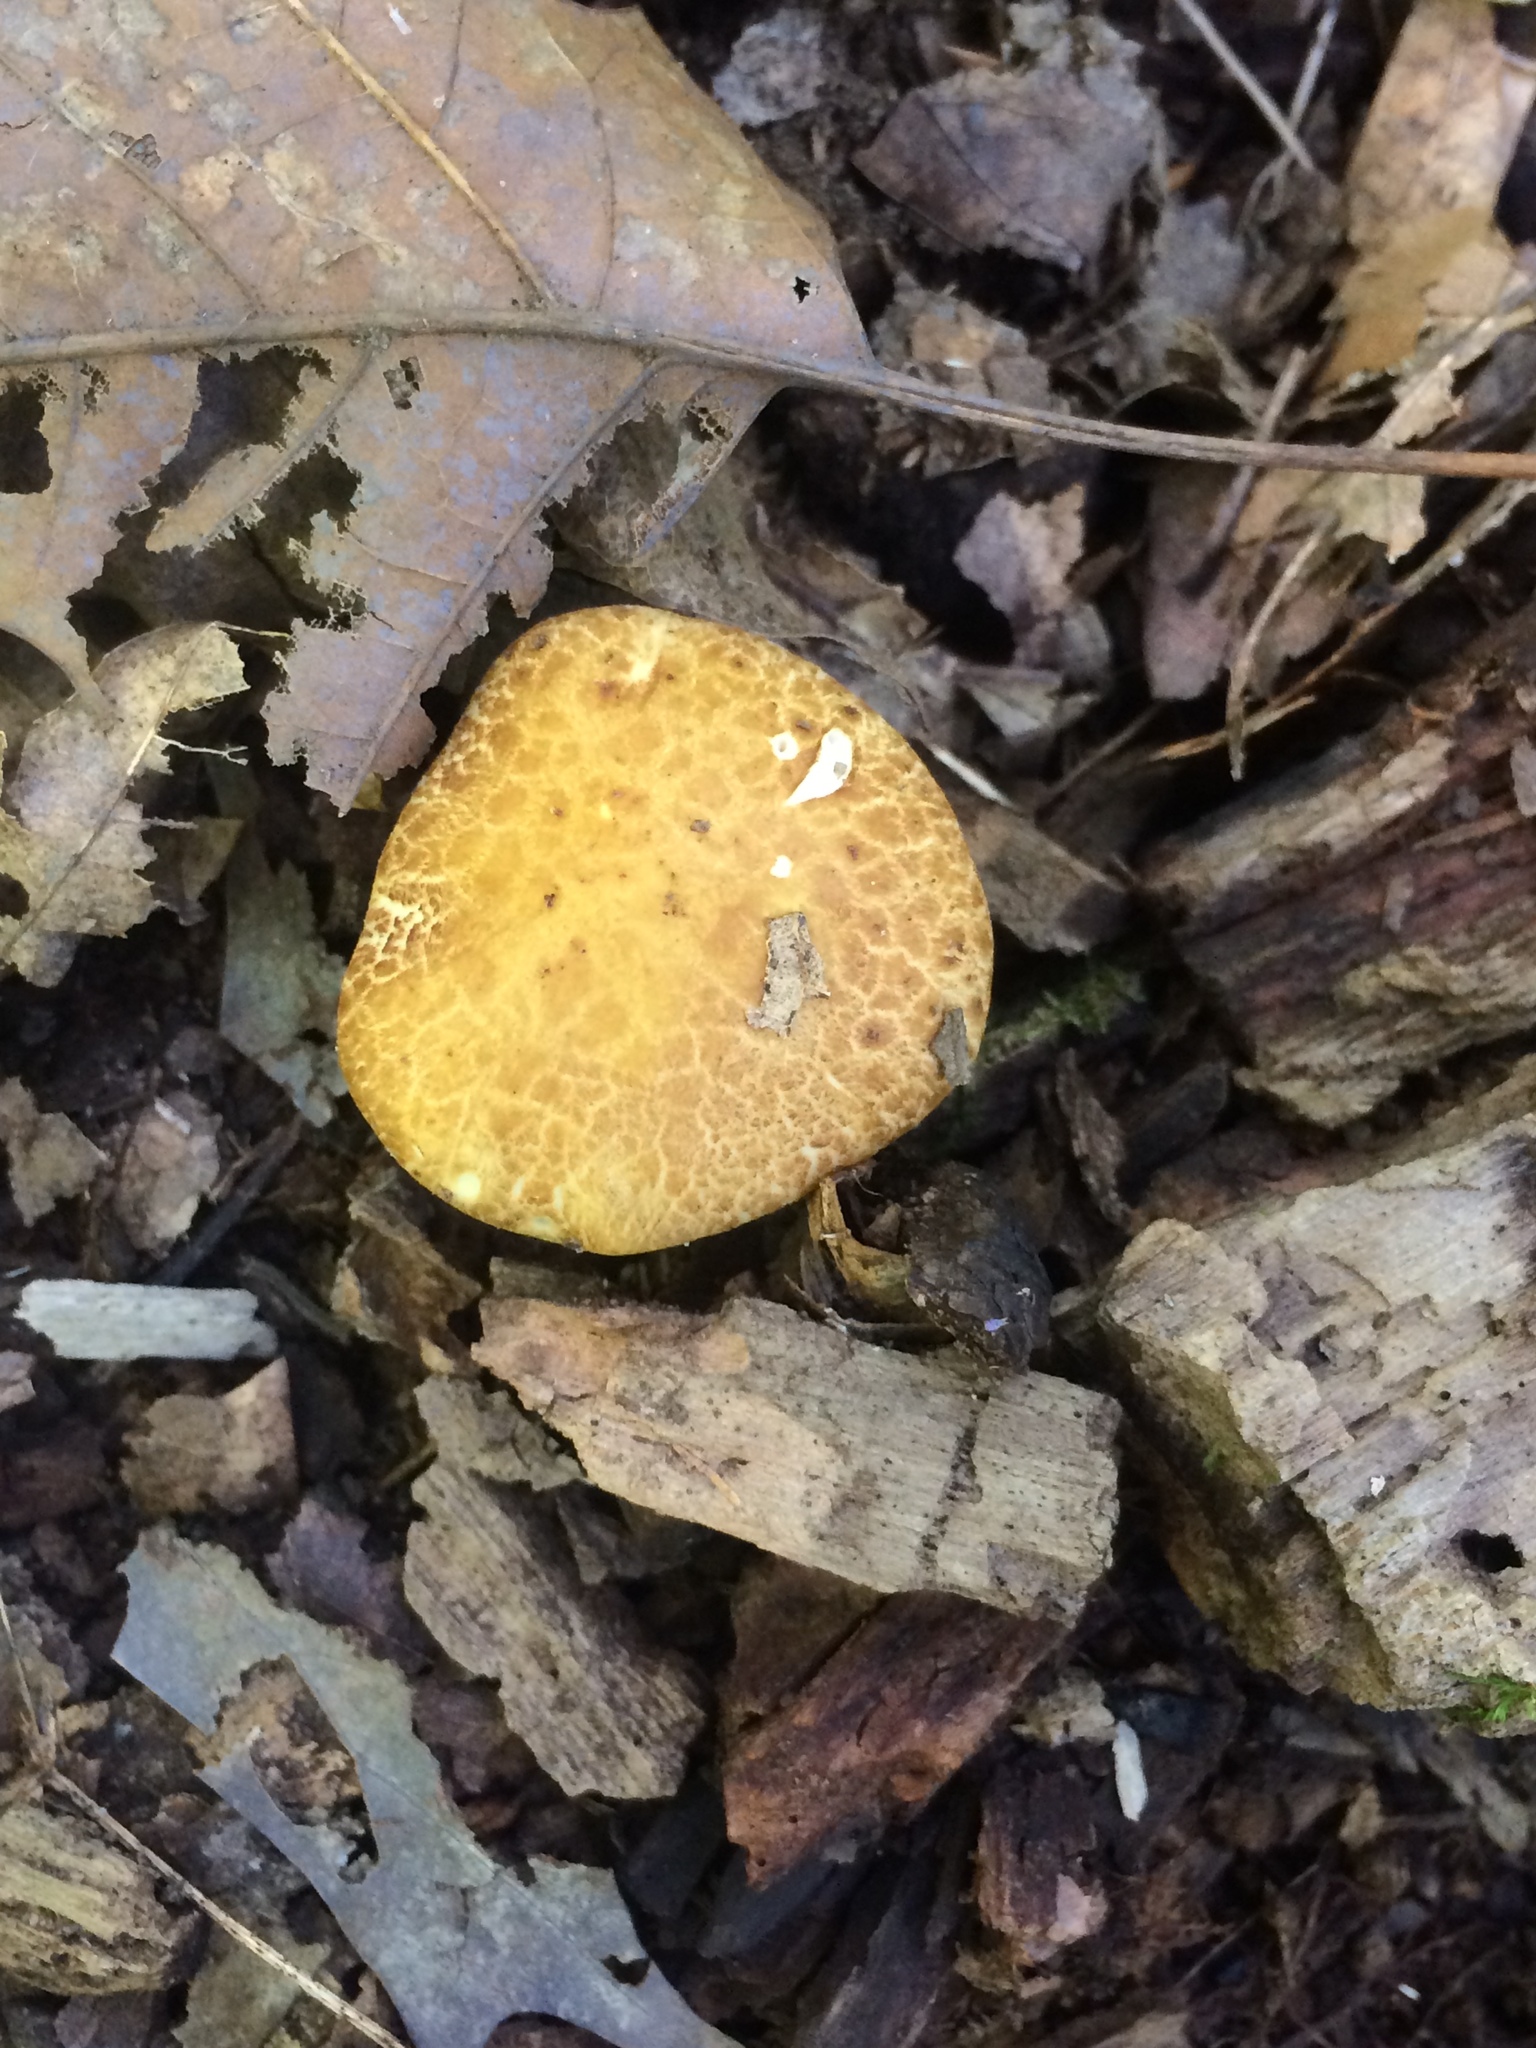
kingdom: Fungi
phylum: Basidiomycota
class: Agaricomycetes
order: Agaricales
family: Strophariaceae
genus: Stropharia
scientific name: Stropharia hardii
